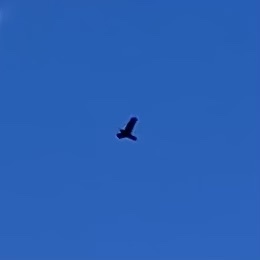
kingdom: Animalia
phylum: Chordata
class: Aves
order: Passeriformes
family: Corvidae
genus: Corvus
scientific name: Corvus corax
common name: Common raven
